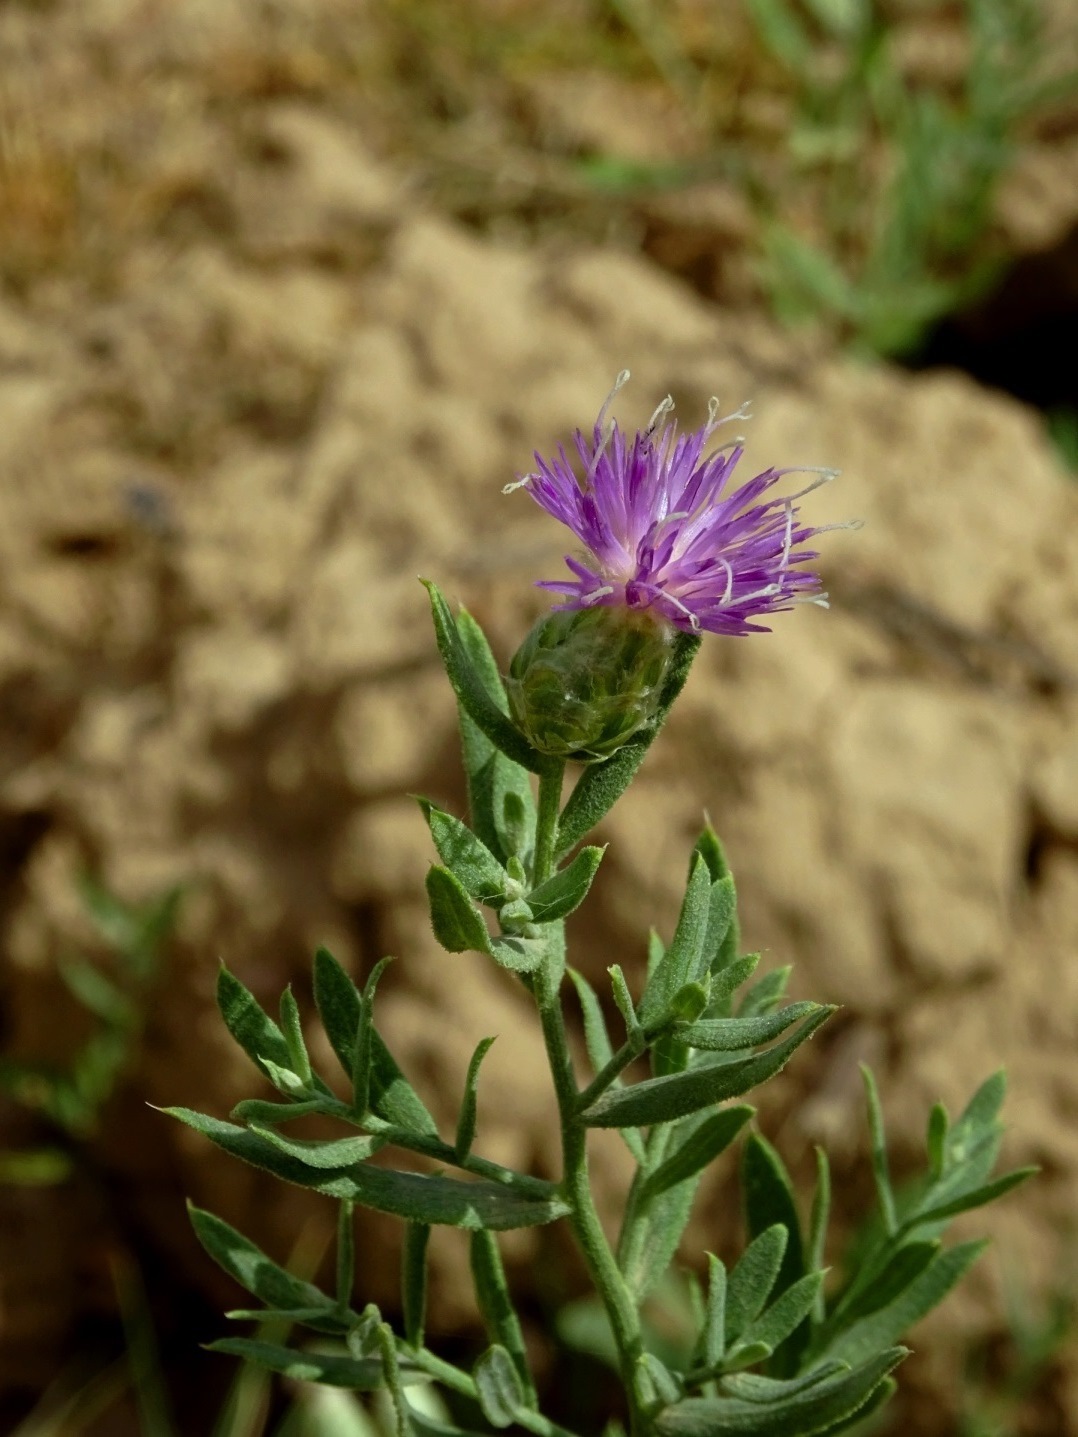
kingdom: Plantae
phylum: Tracheophyta
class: Magnoliopsida
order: Asterales
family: Asteraceae
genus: Leuzea
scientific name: Leuzea repens
